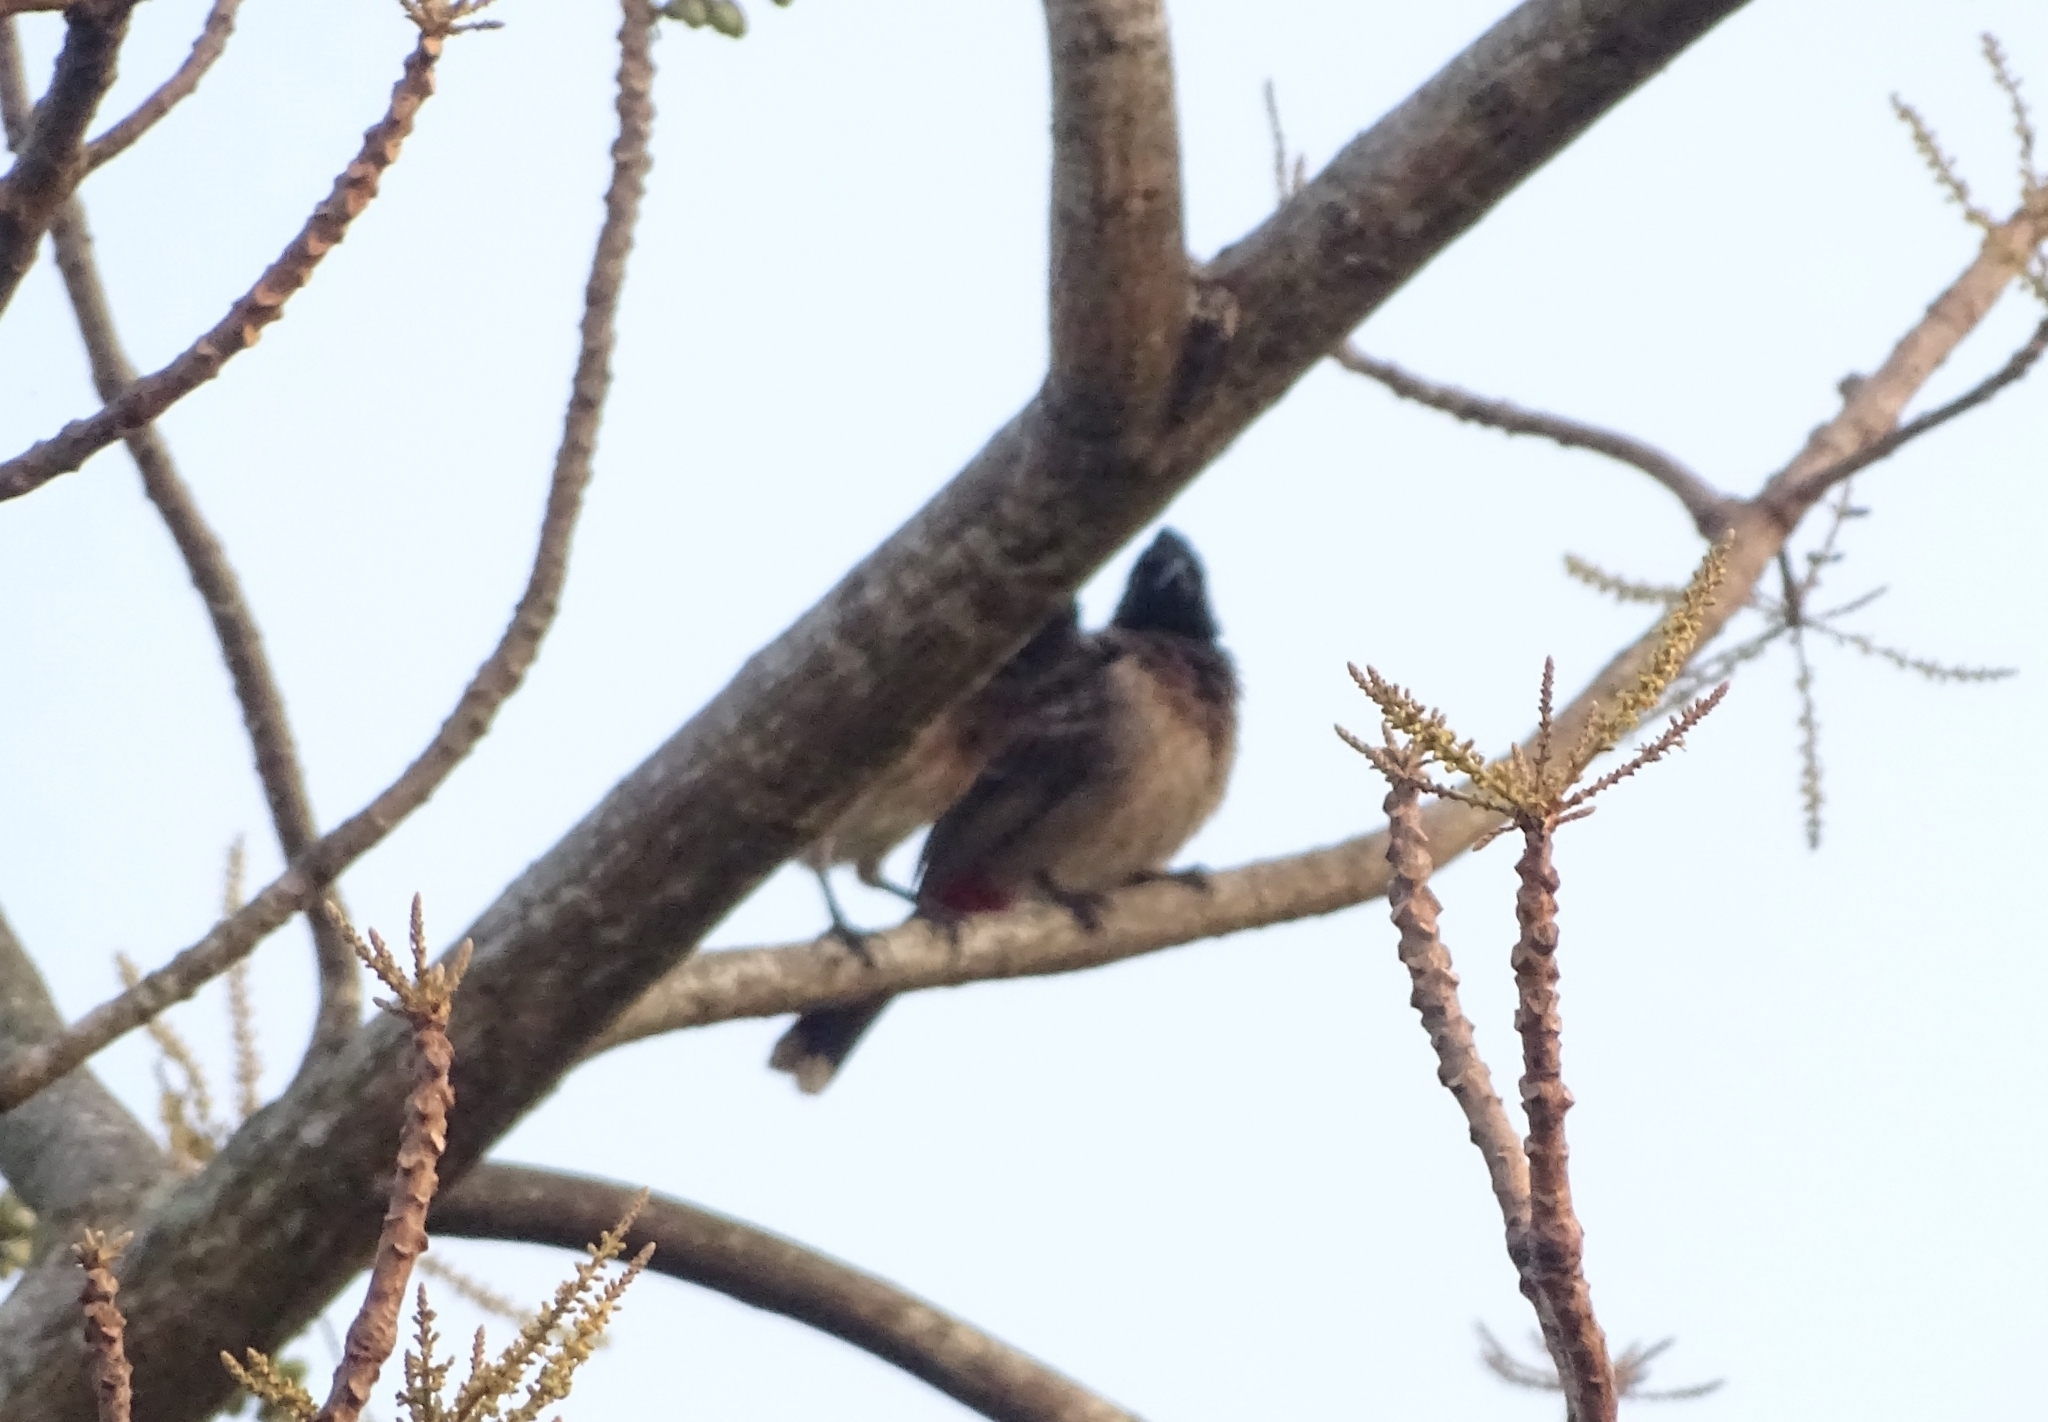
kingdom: Animalia
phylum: Chordata
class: Aves
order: Passeriformes
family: Pycnonotidae
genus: Pycnonotus
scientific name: Pycnonotus cafer
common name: Red-vented bulbul
